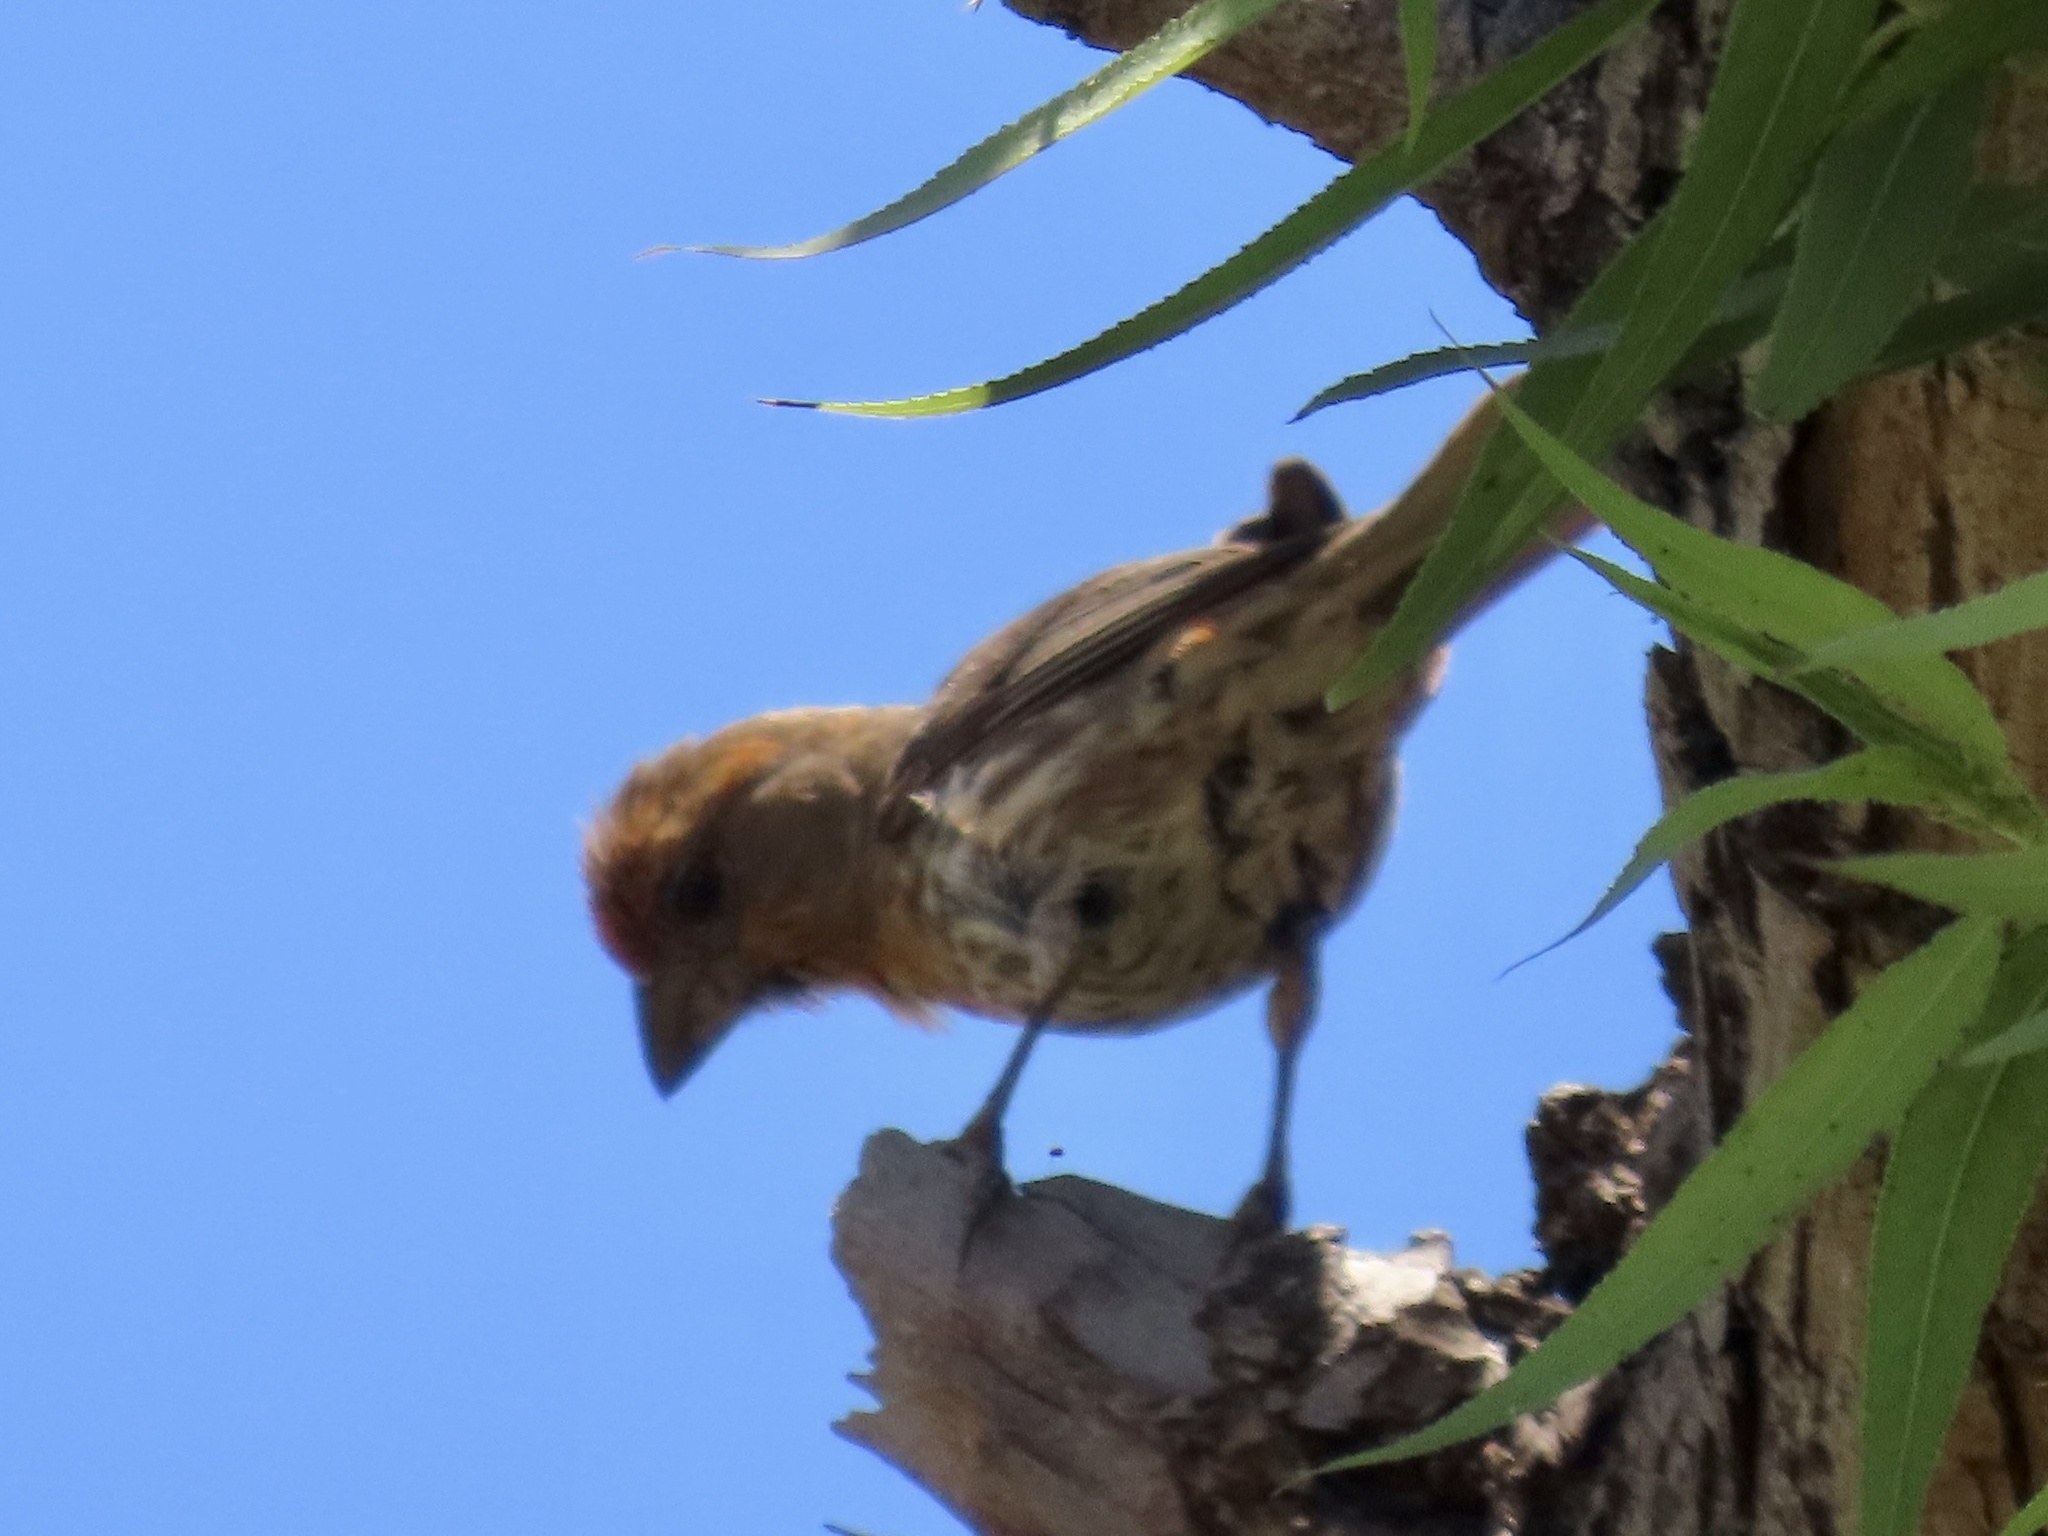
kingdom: Animalia
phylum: Chordata
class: Aves
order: Passeriformes
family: Fringillidae
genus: Haemorhous
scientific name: Haemorhous mexicanus
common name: House finch
